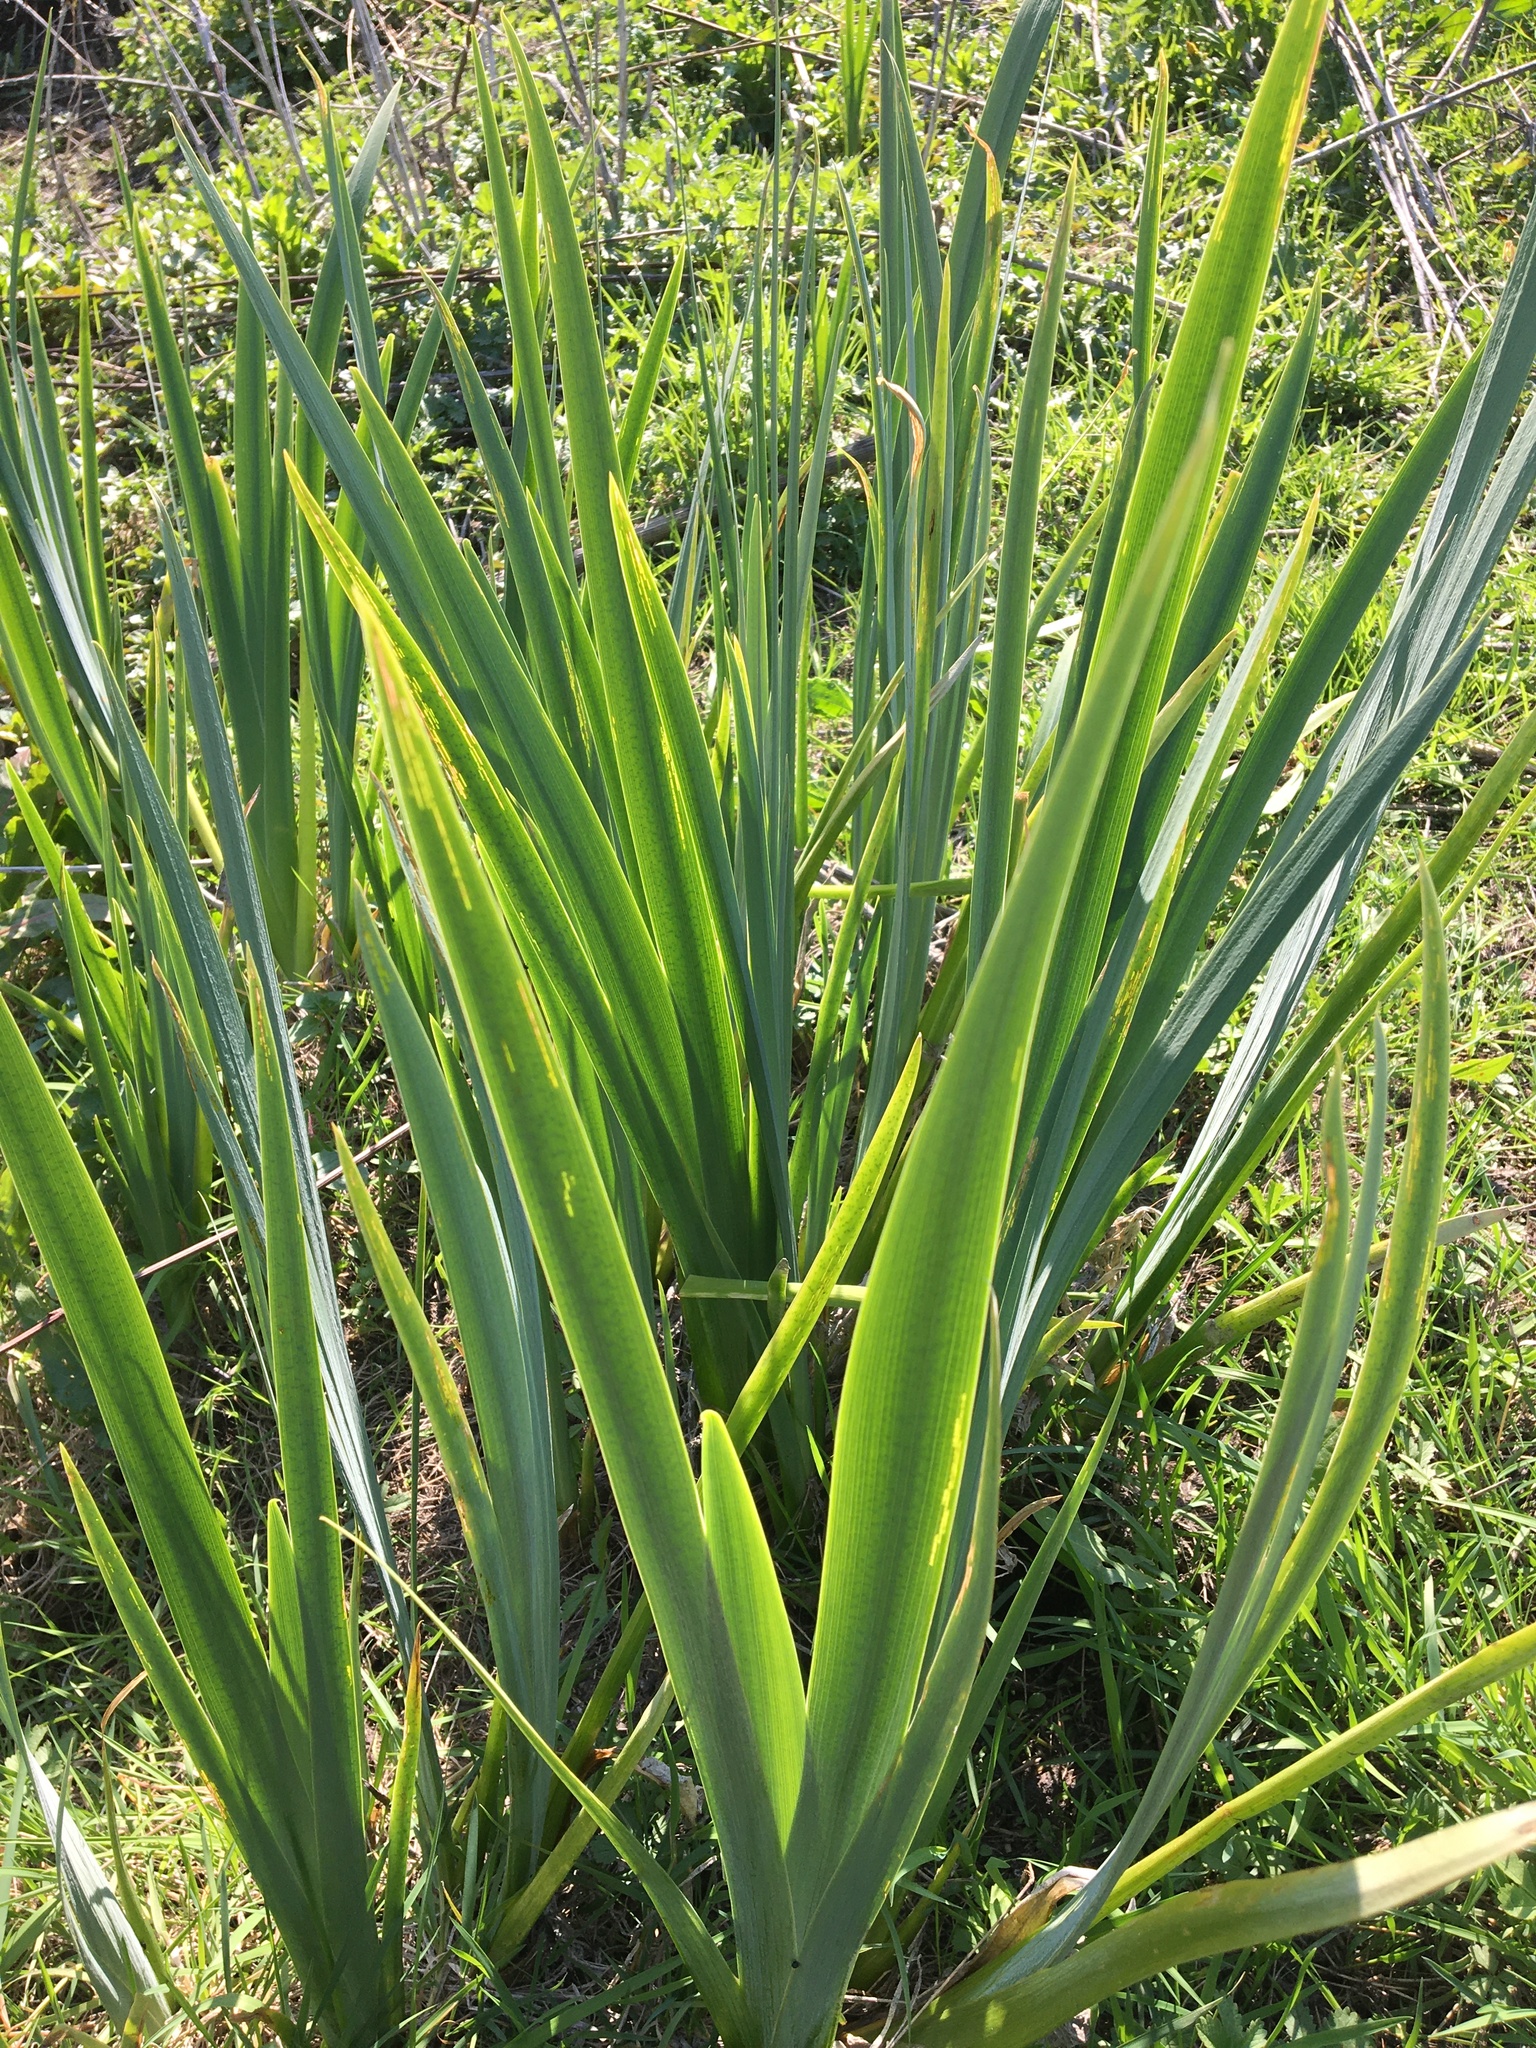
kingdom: Plantae
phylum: Tracheophyta
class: Liliopsida
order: Asparagales
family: Iridaceae
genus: Iris
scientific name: Iris pseudacorus
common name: Yellow flag
